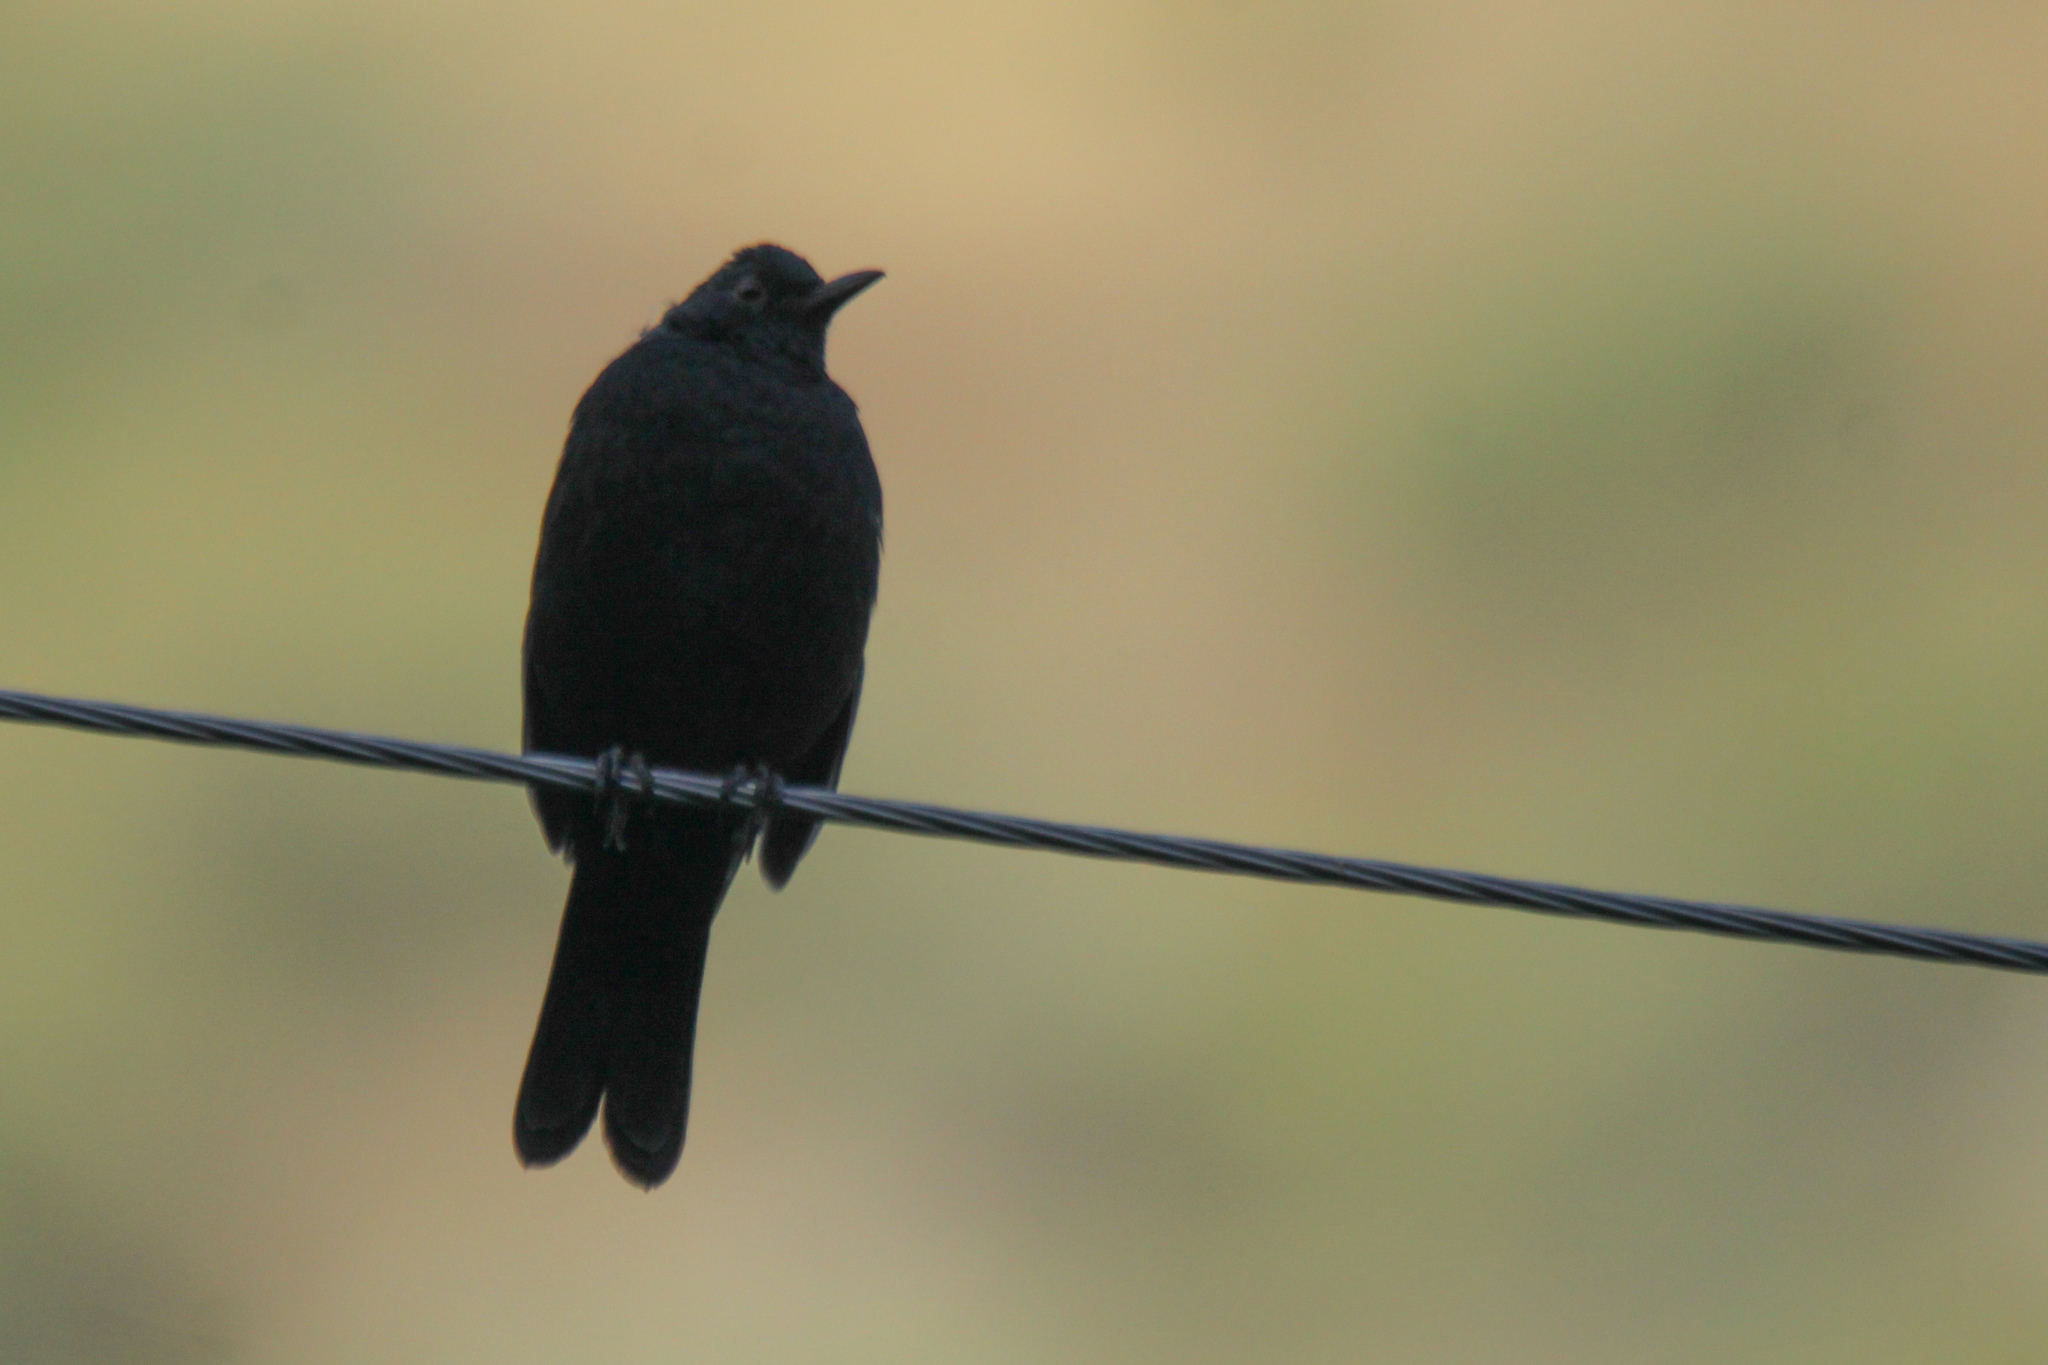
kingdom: Animalia
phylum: Chordata
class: Aves
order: Passeriformes
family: Turdidae
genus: Turdus
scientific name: Turdus merula
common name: Common blackbird
